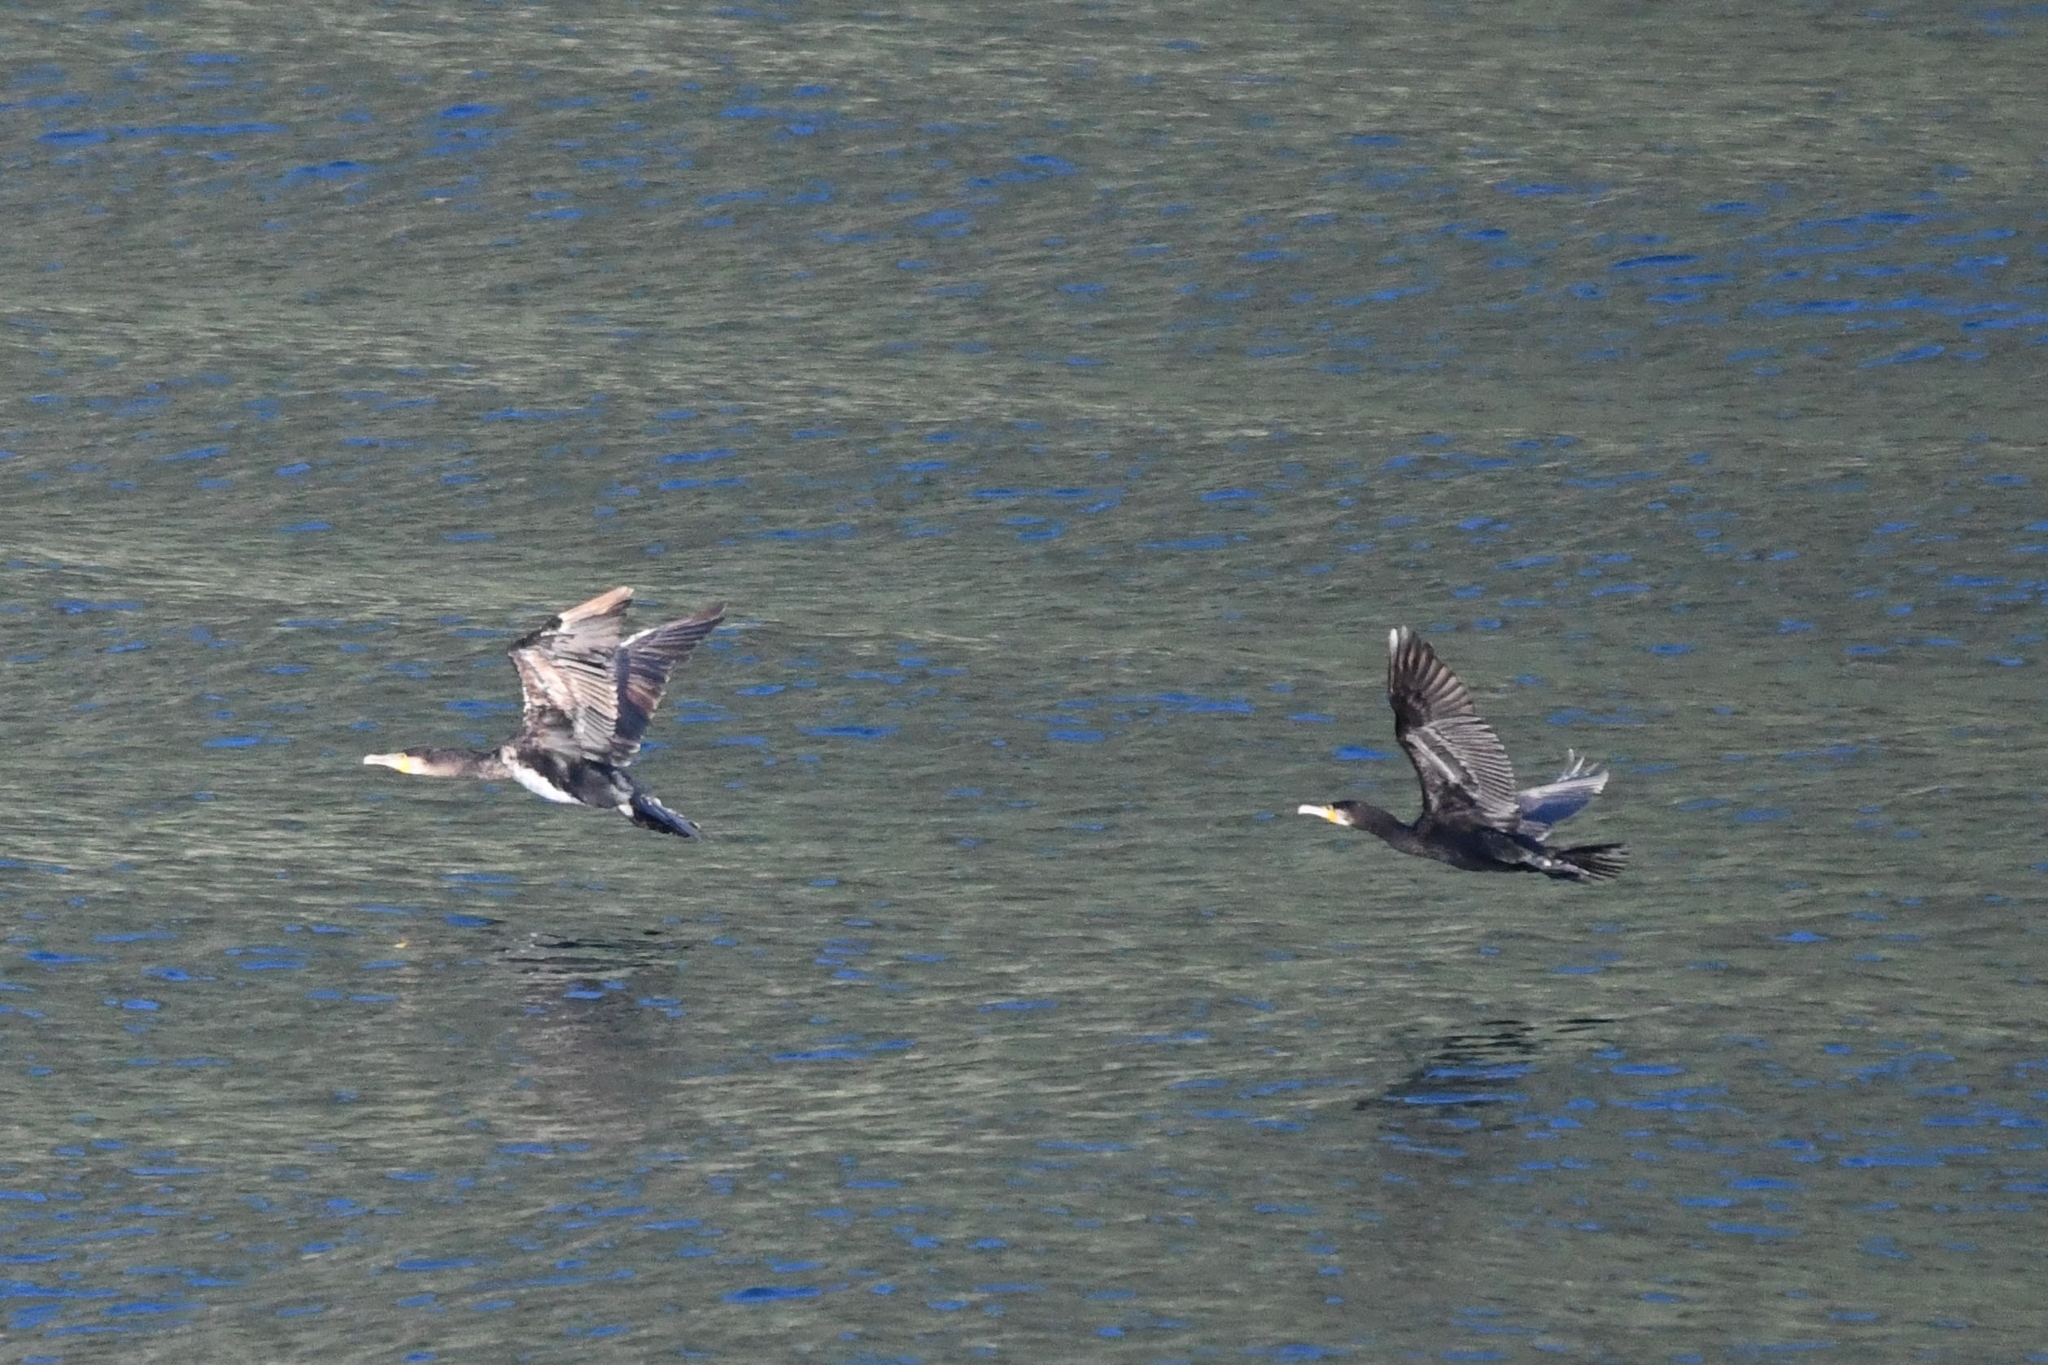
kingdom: Animalia
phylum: Chordata
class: Aves
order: Suliformes
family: Phalacrocoracidae
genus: Phalacrocorax
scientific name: Phalacrocorax carbo
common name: Great cormorant
